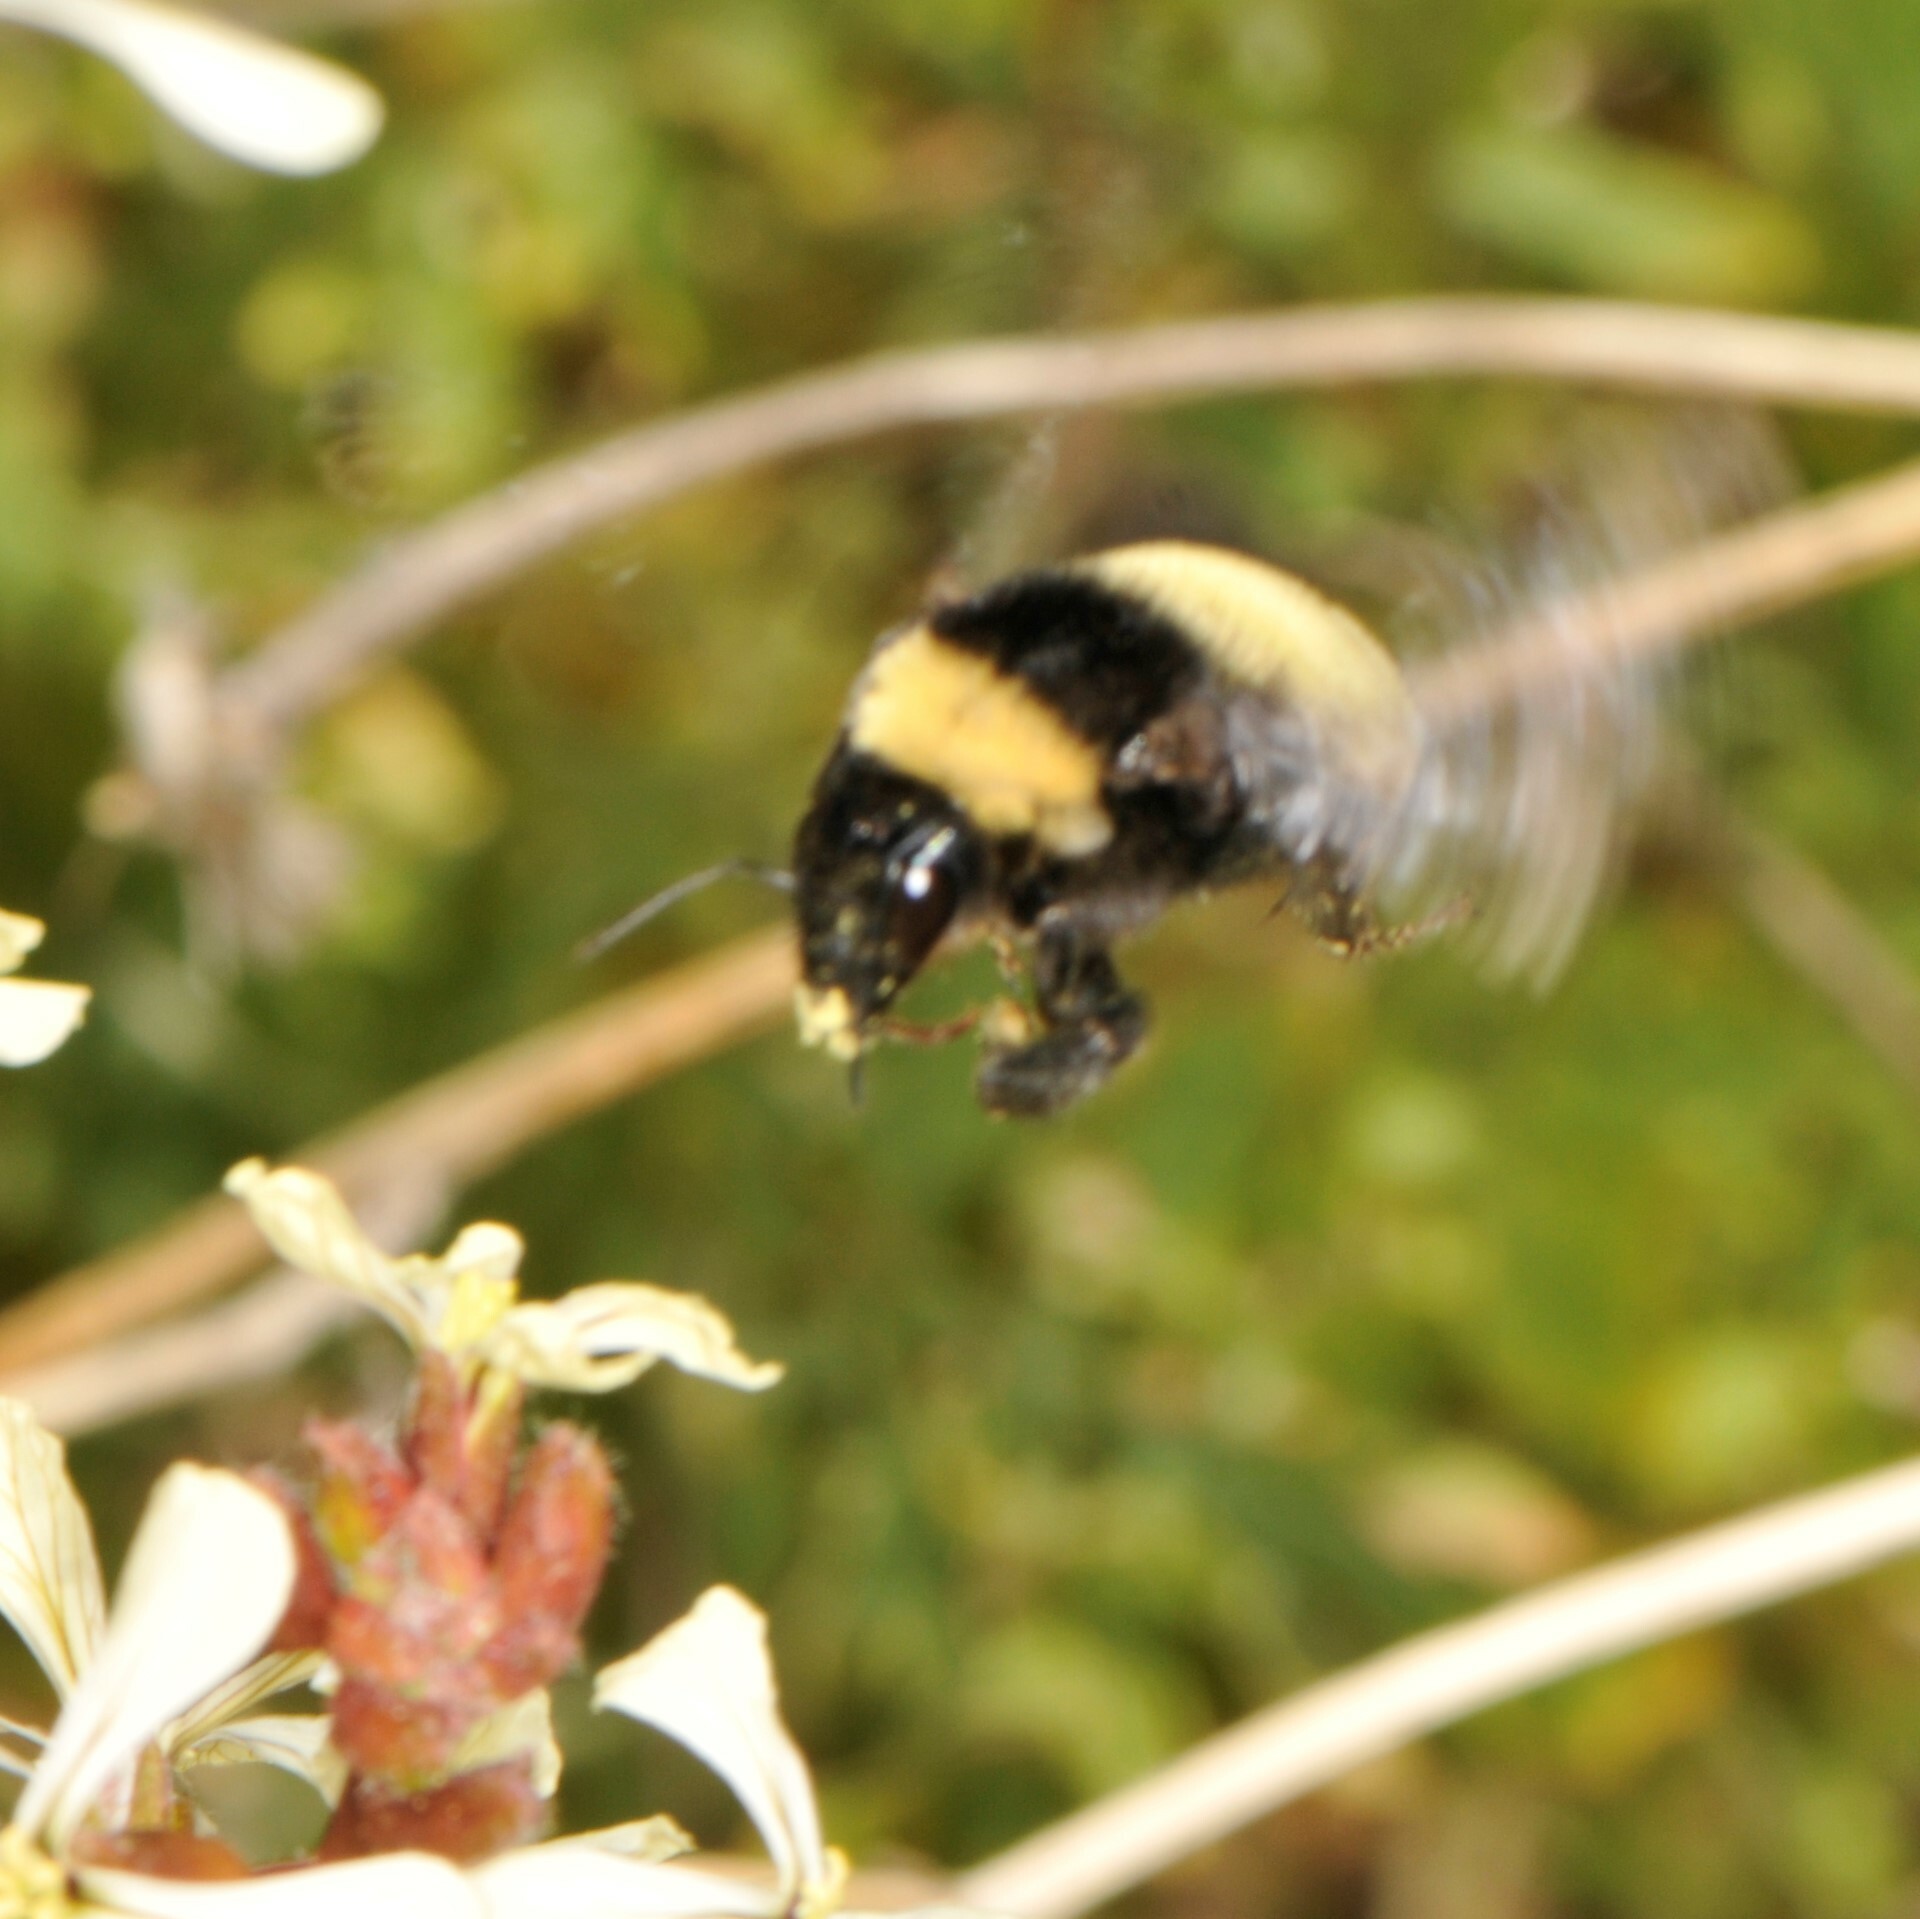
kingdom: Animalia
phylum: Arthropoda
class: Insecta
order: Hymenoptera
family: Apidae
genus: Bombus
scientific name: Bombus pensylvanicus
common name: Bumble bee
